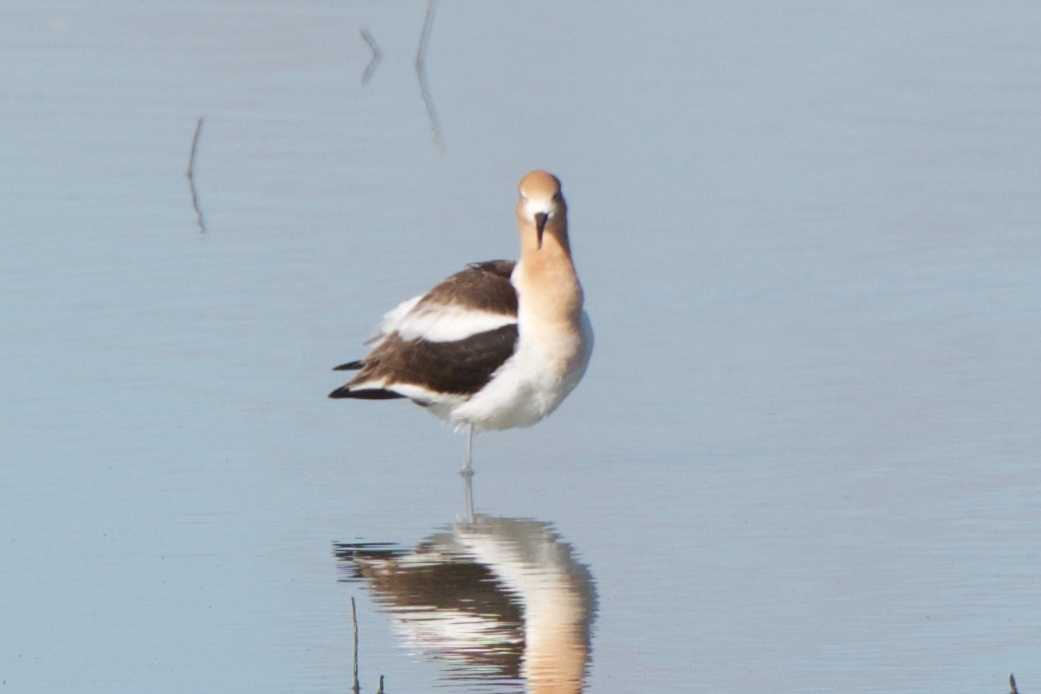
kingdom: Animalia
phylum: Chordata
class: Aves
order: Charadriiformes
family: Recurvirostridae
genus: Recurvirostra
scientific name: Recurvirostra americana
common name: American avocet
